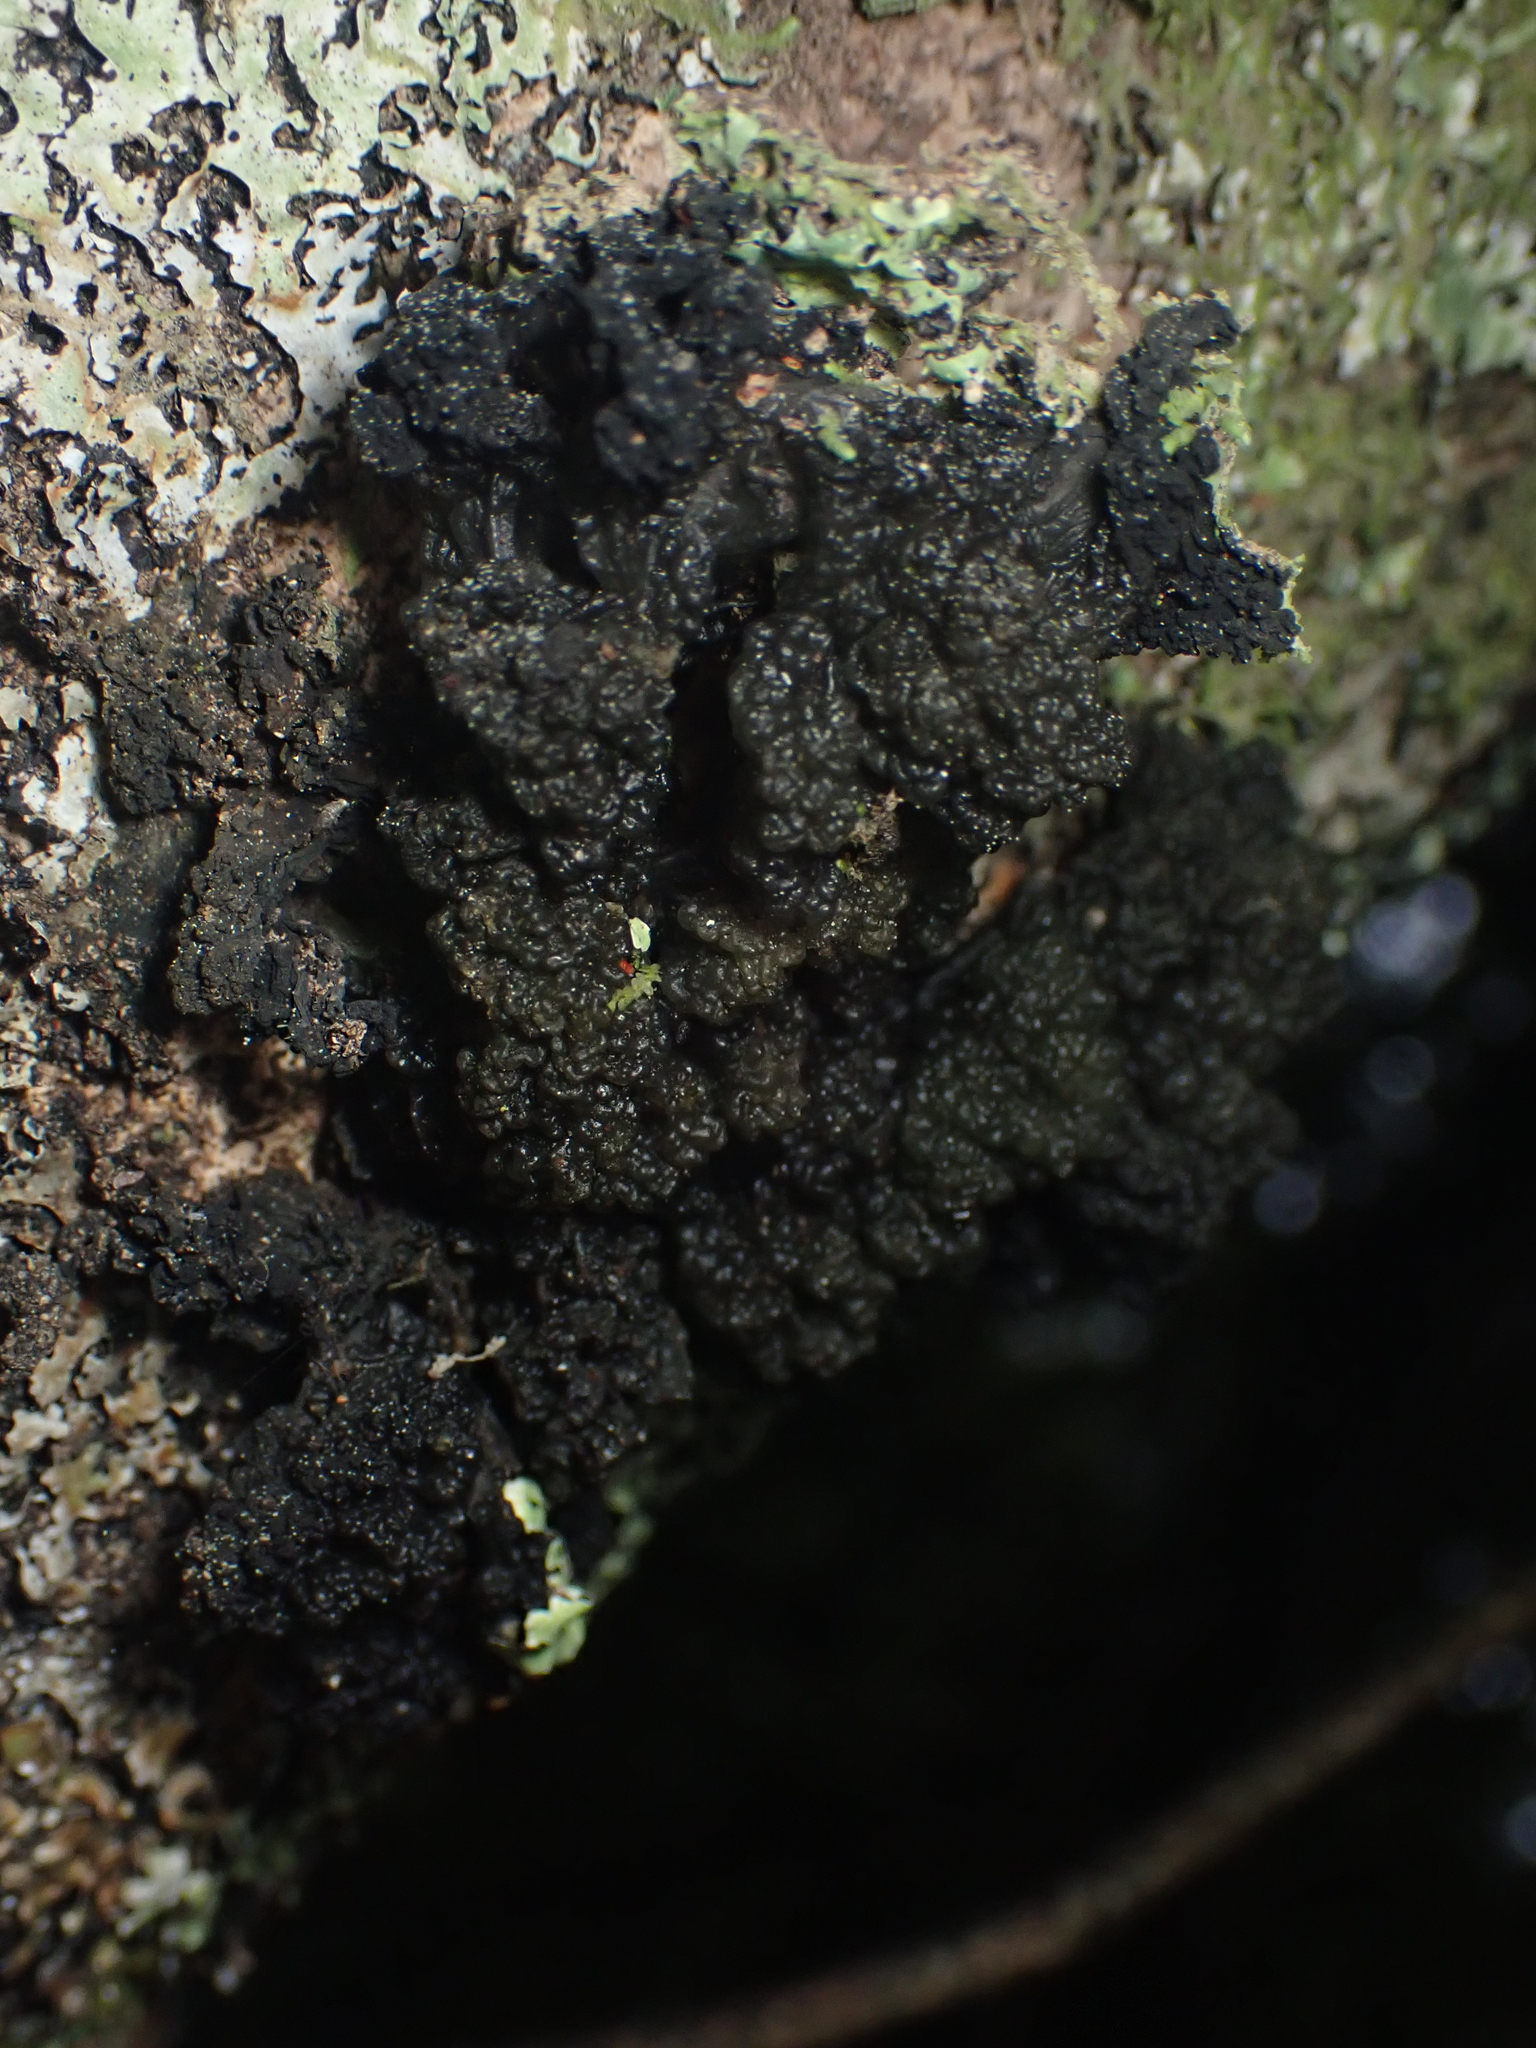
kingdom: Fungi
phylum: Ascomycota
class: Lecanoromycetes
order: Arctomiales
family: Arctomiaceae
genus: Arctomia
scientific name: Arctomia fascicularis
